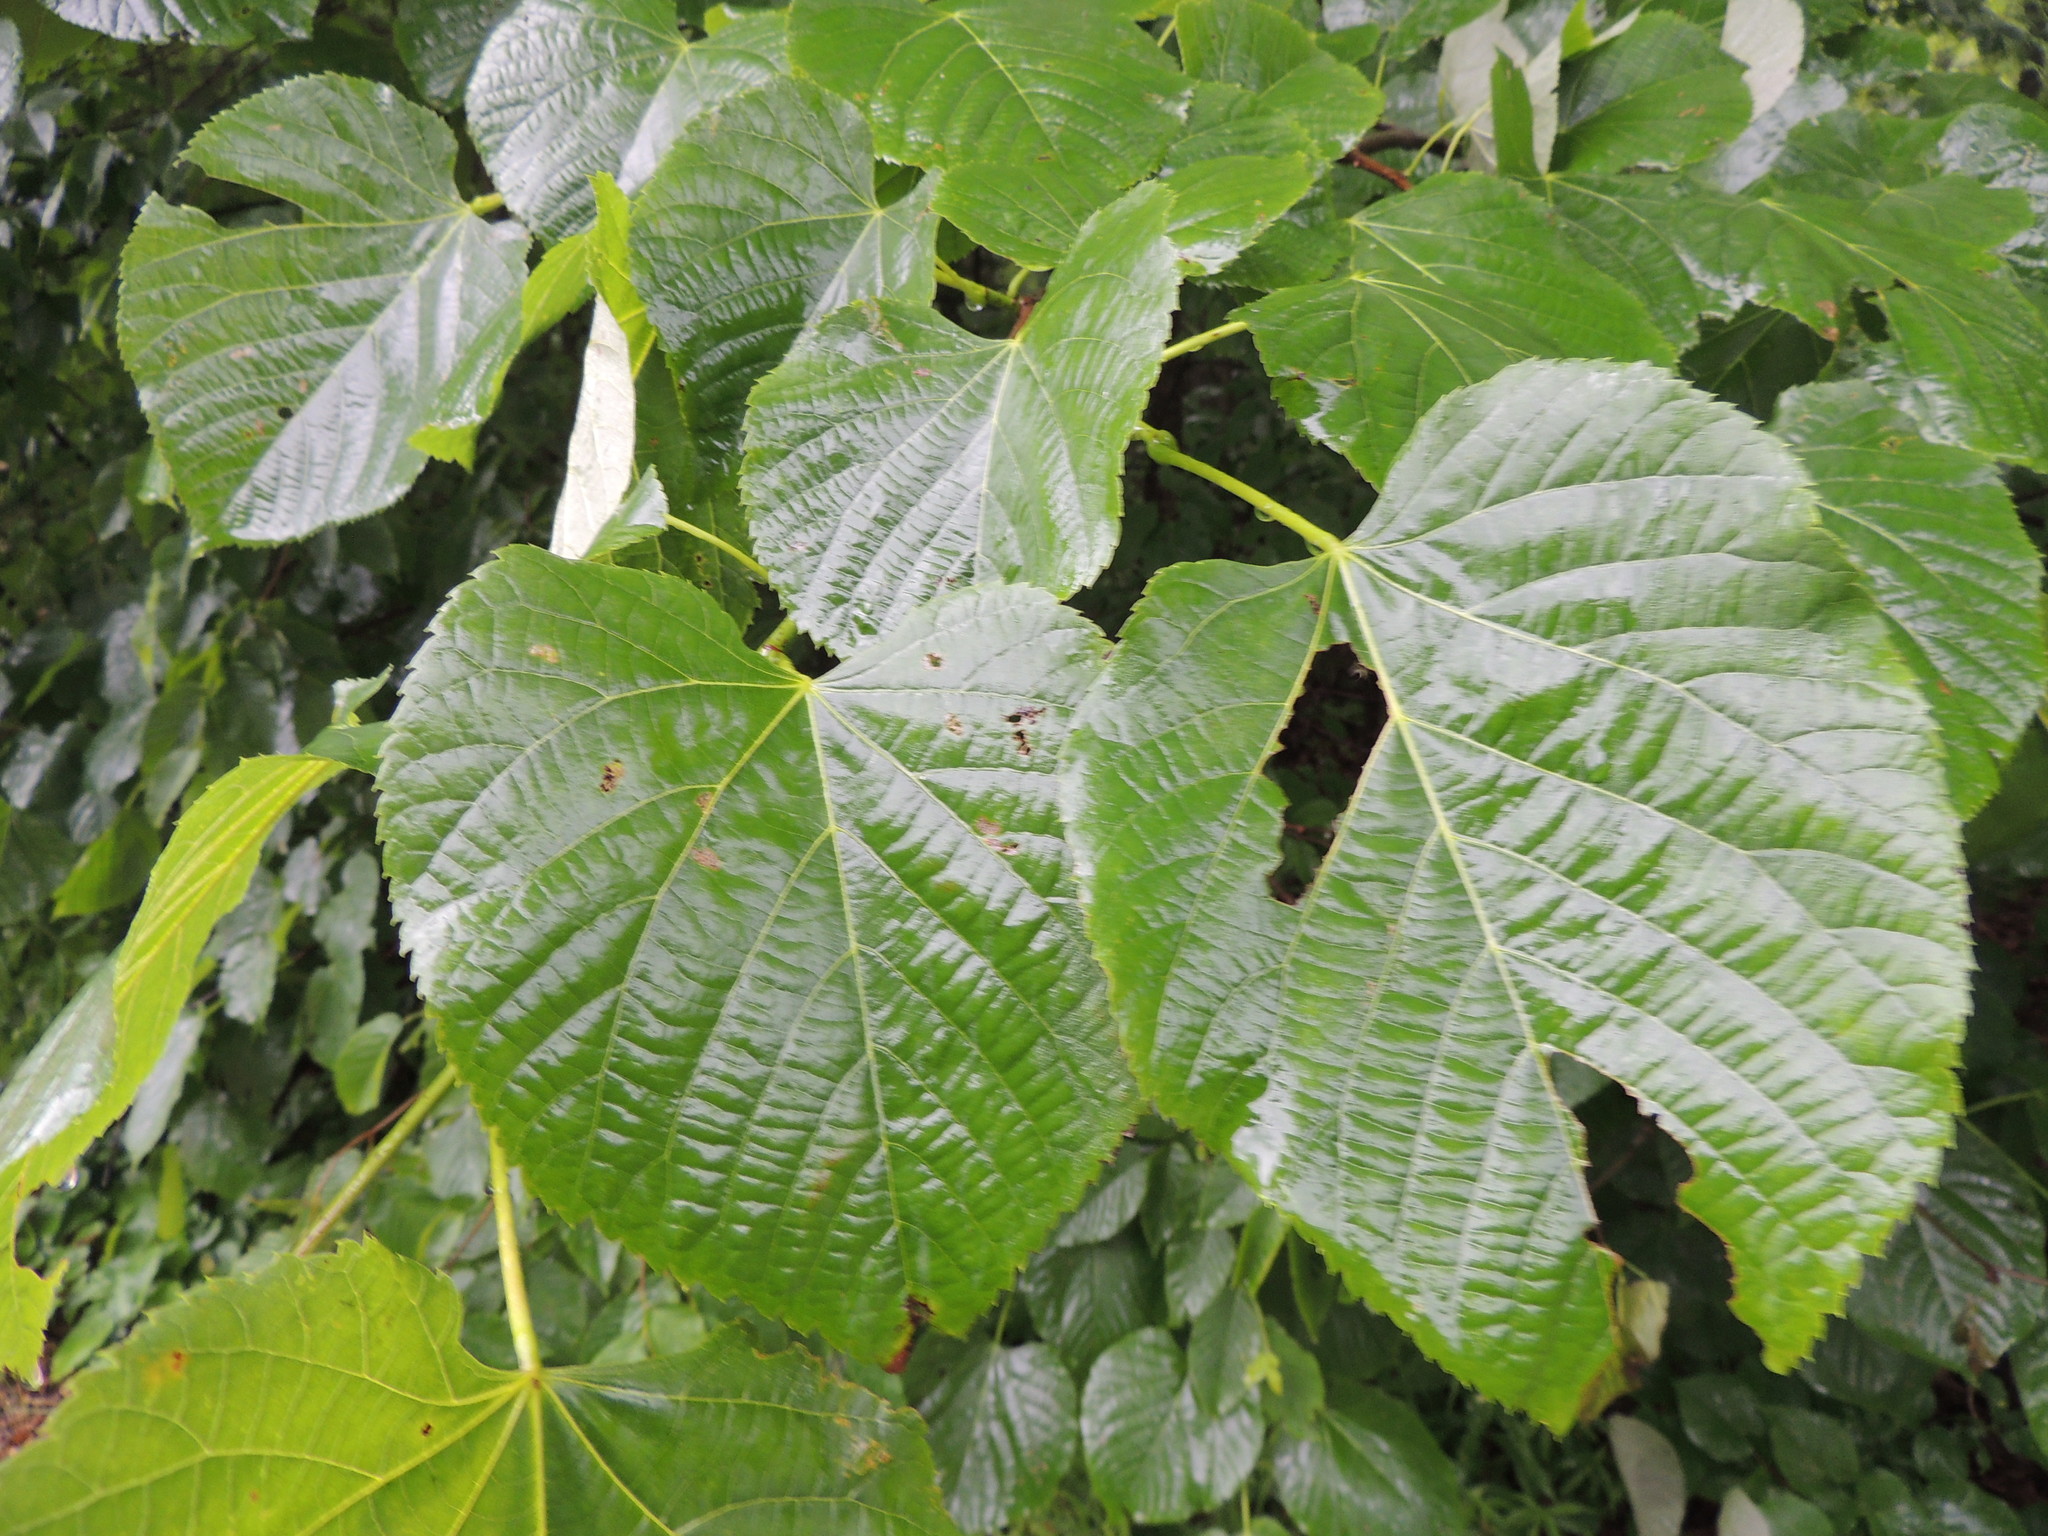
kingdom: Plantae
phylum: Tracheophyta
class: Magnoliopsida
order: Malvales
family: Malvaceae
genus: Tilia
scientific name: Tilia americana
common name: Basswood
